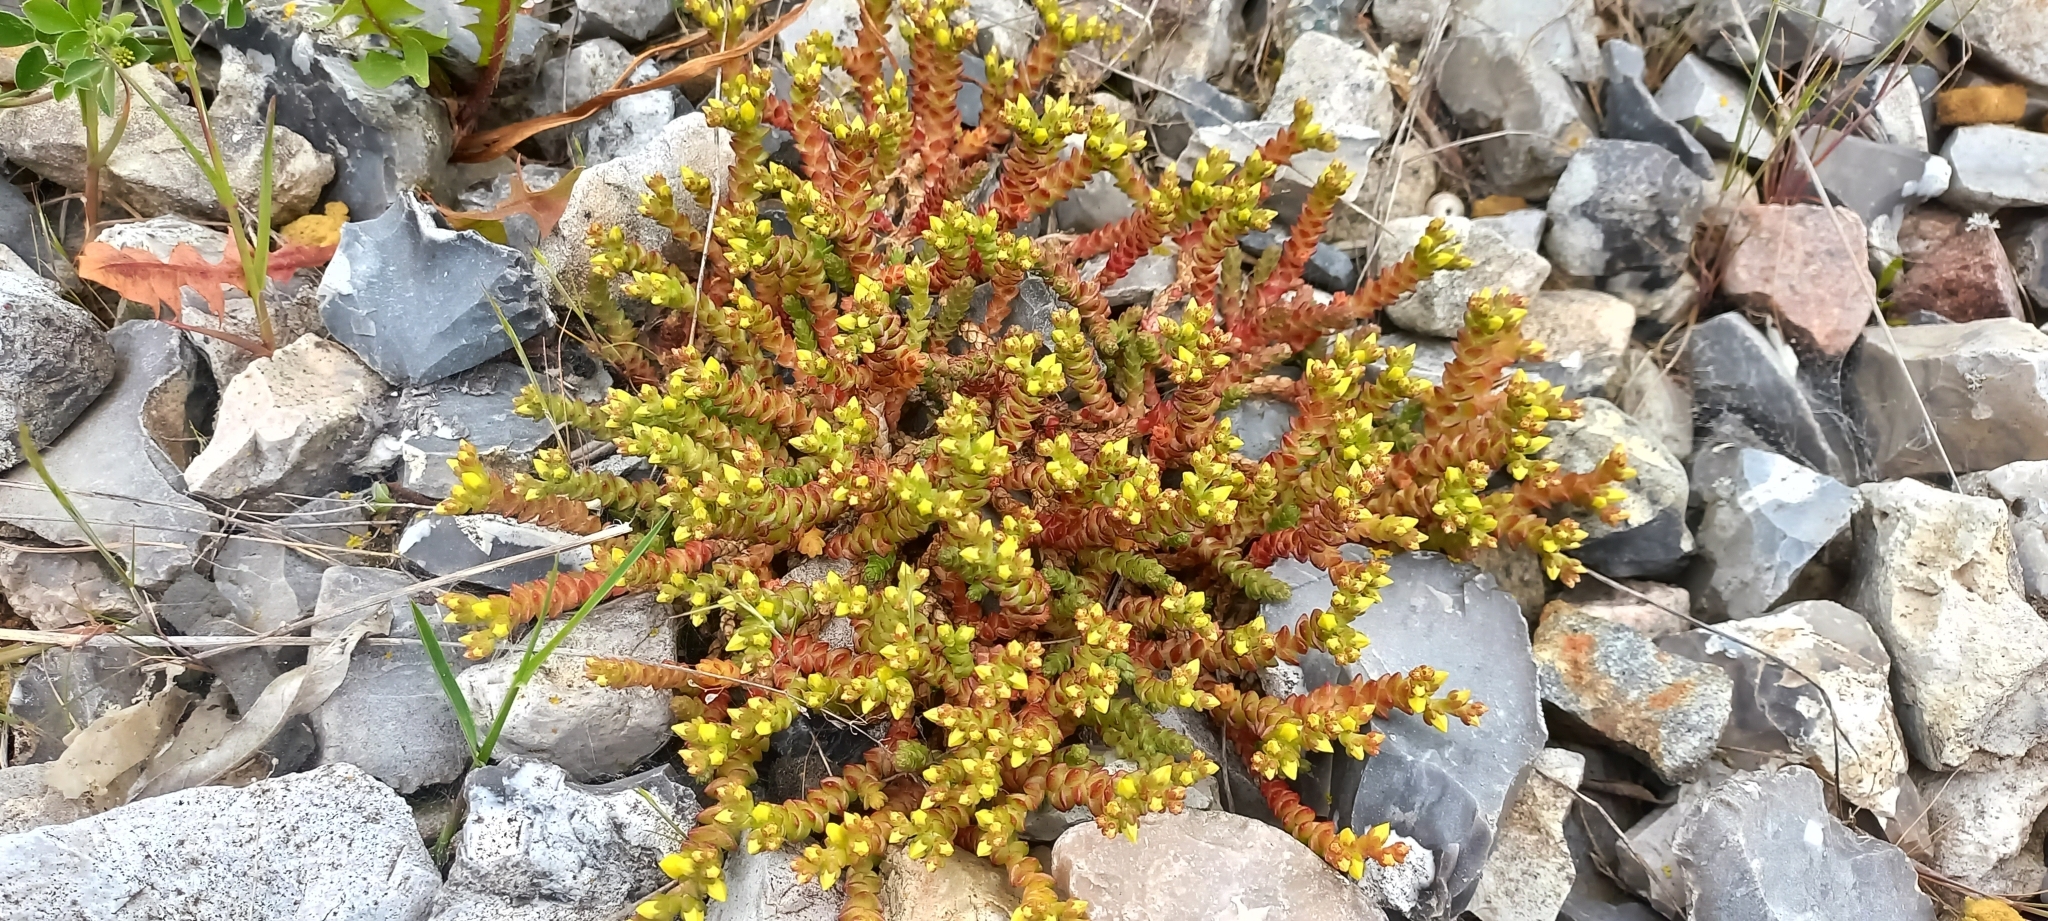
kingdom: Plantae
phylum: Tracheophyta
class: Magnoliopsida
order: Saxifragales
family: Crassulaceae
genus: Sedum
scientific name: Sedum acre
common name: Biting stonecrop
